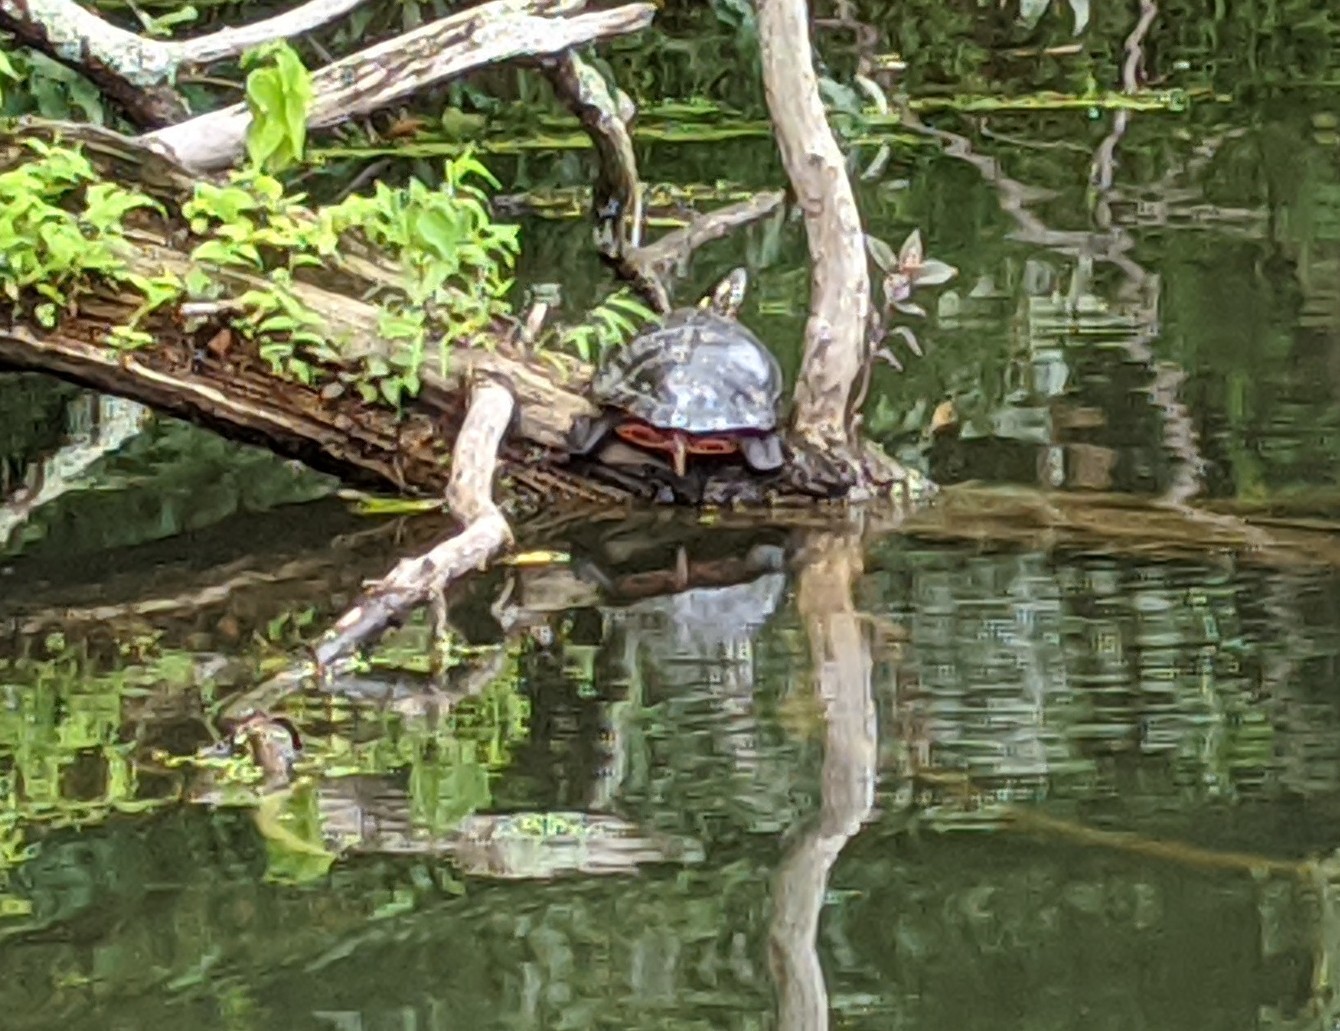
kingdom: Animalia
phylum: Chordata
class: Testudines
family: Emydidae
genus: Chrysemys
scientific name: Chrysemys picta
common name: Painted turtle
